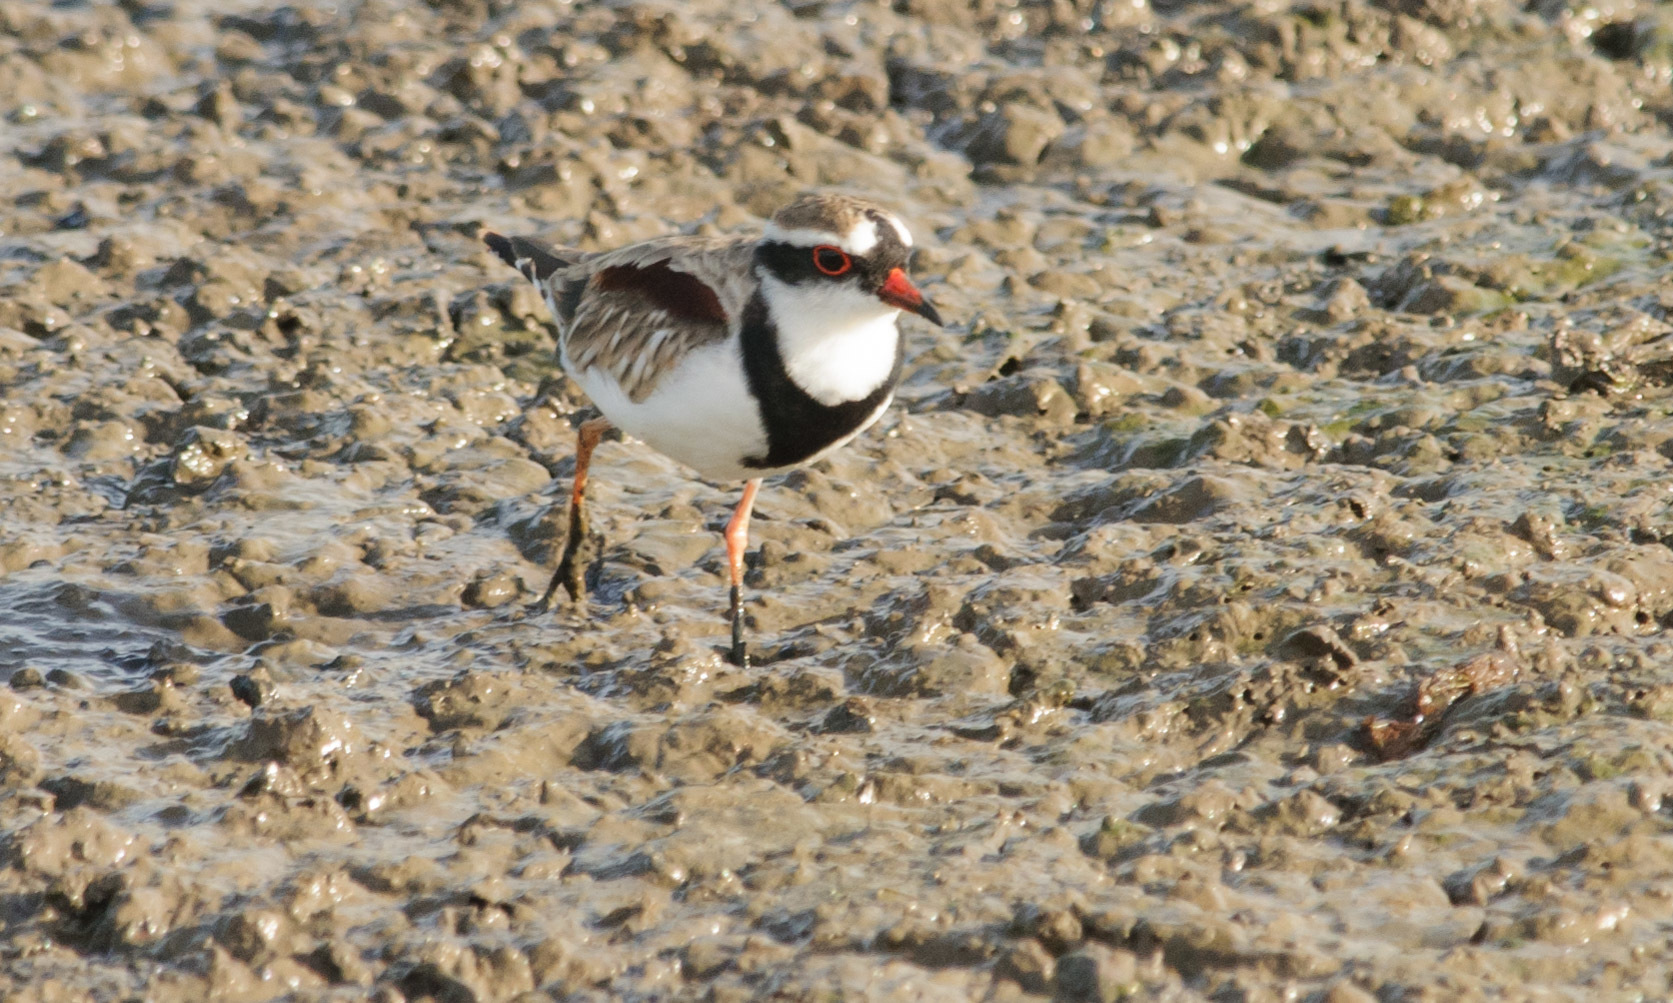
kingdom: Animalia
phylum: Chordata
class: Aves
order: Charadriiformes
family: Charadriidae
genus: Elseyornis
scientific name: Elseyornis melanops
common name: Black-fronted dotterel
